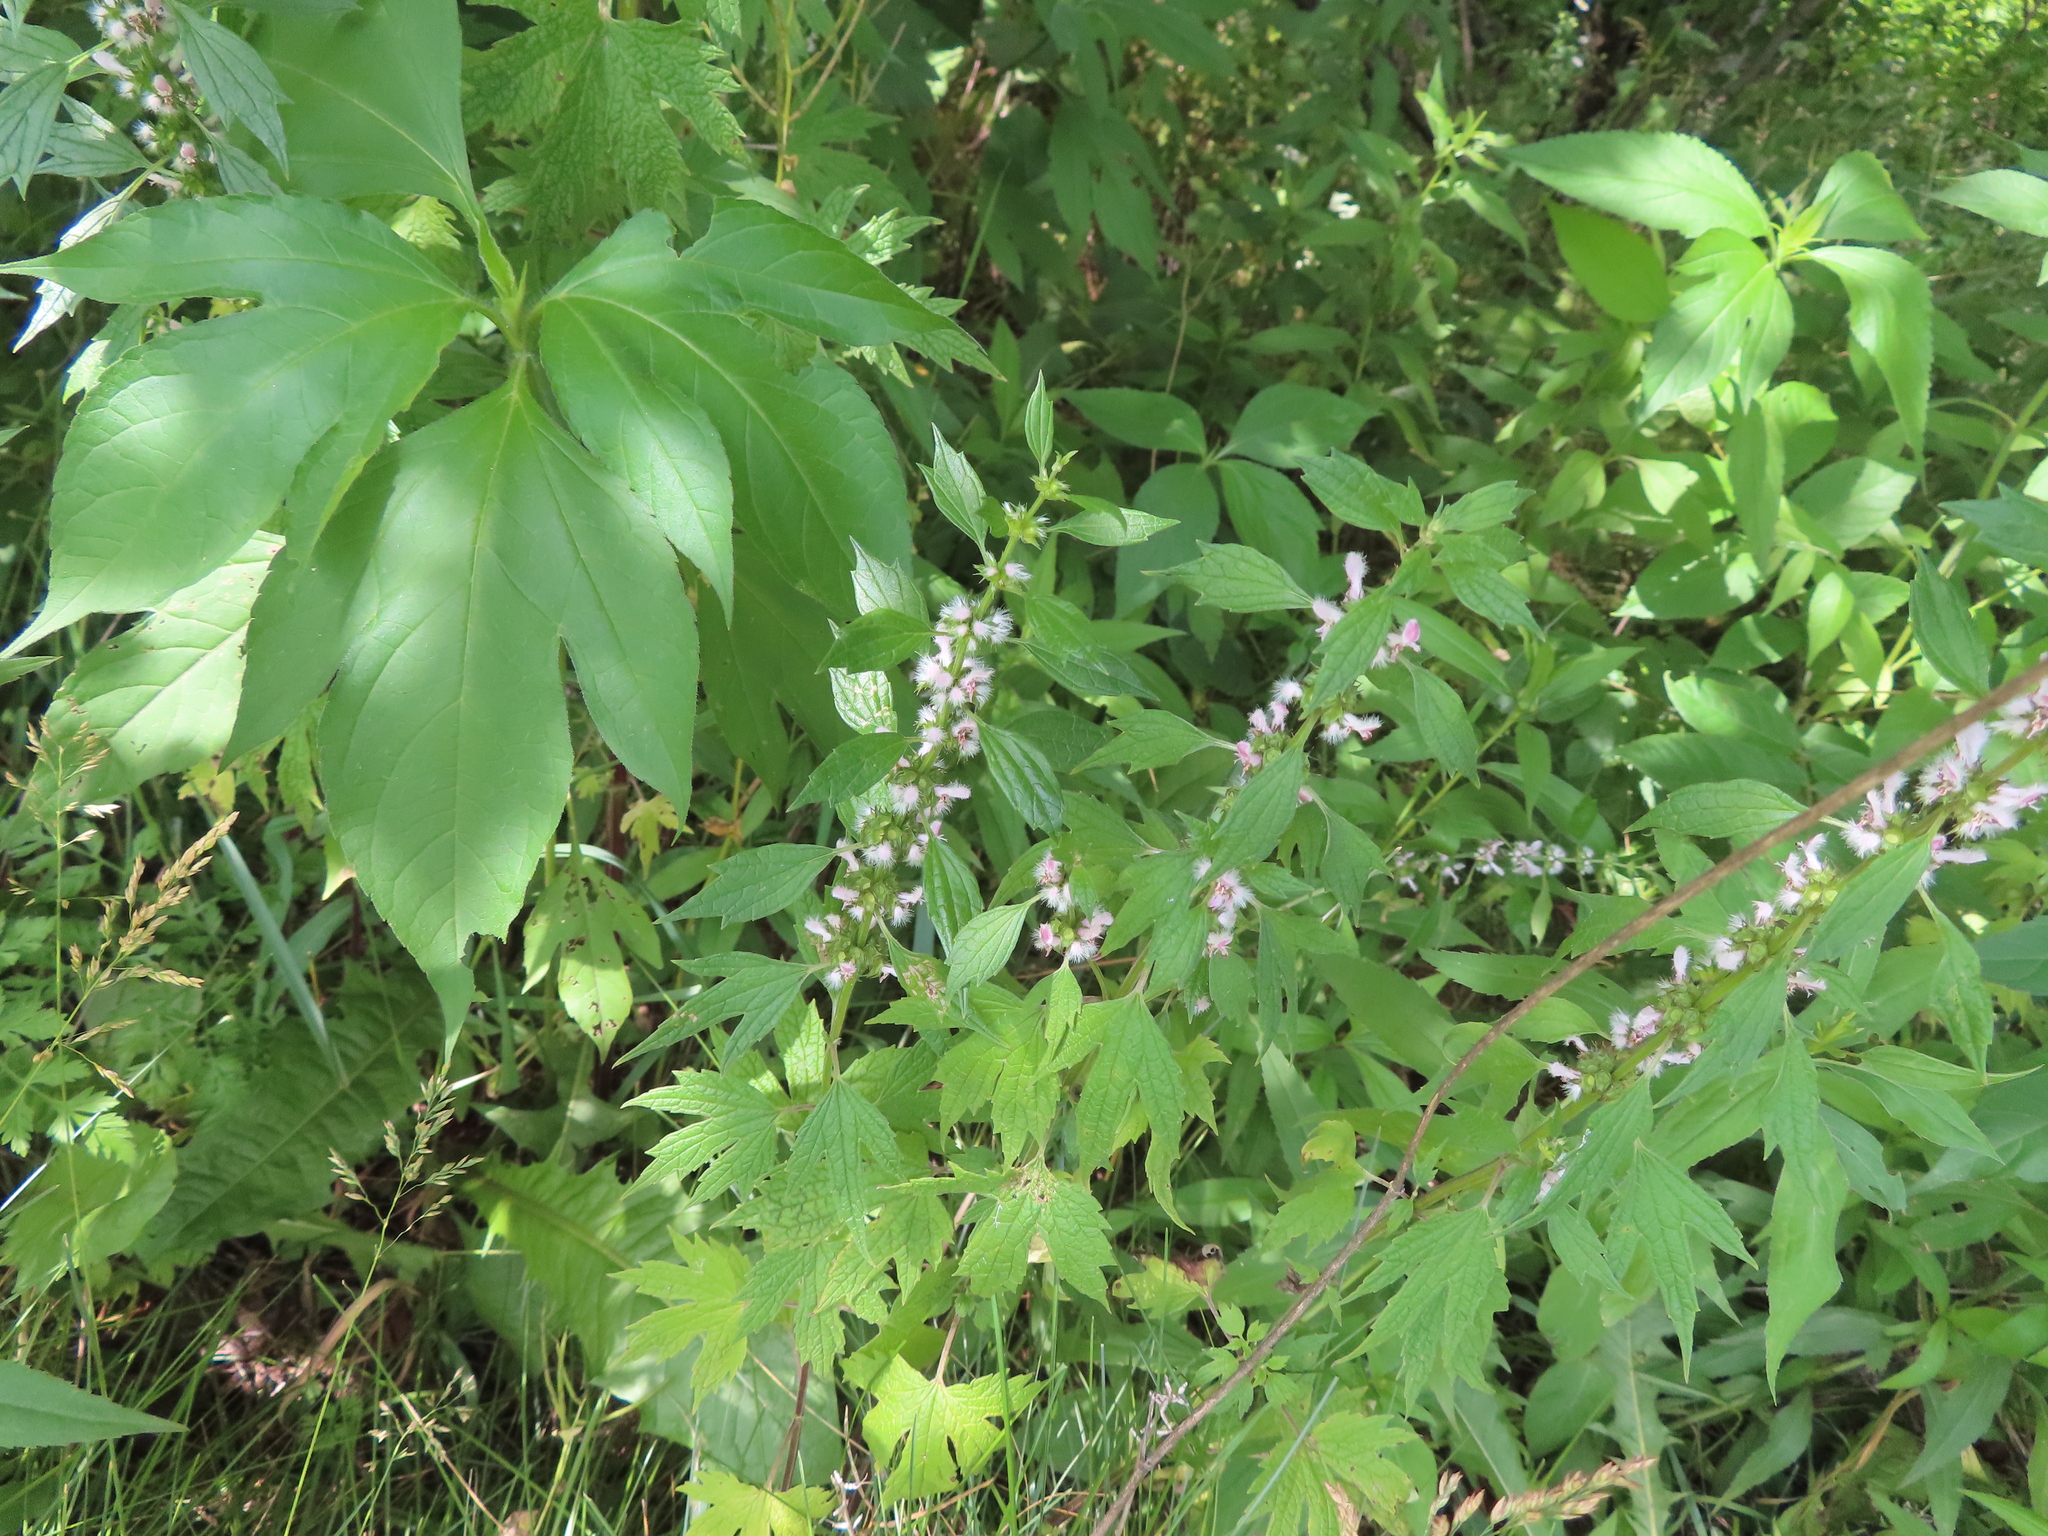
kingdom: Plantae
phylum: Tracheophyta
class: Magnoliopsida
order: Lamiales
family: Lamiaceae
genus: Leonurus
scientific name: Leonurus cardiaca
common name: Motherwort
